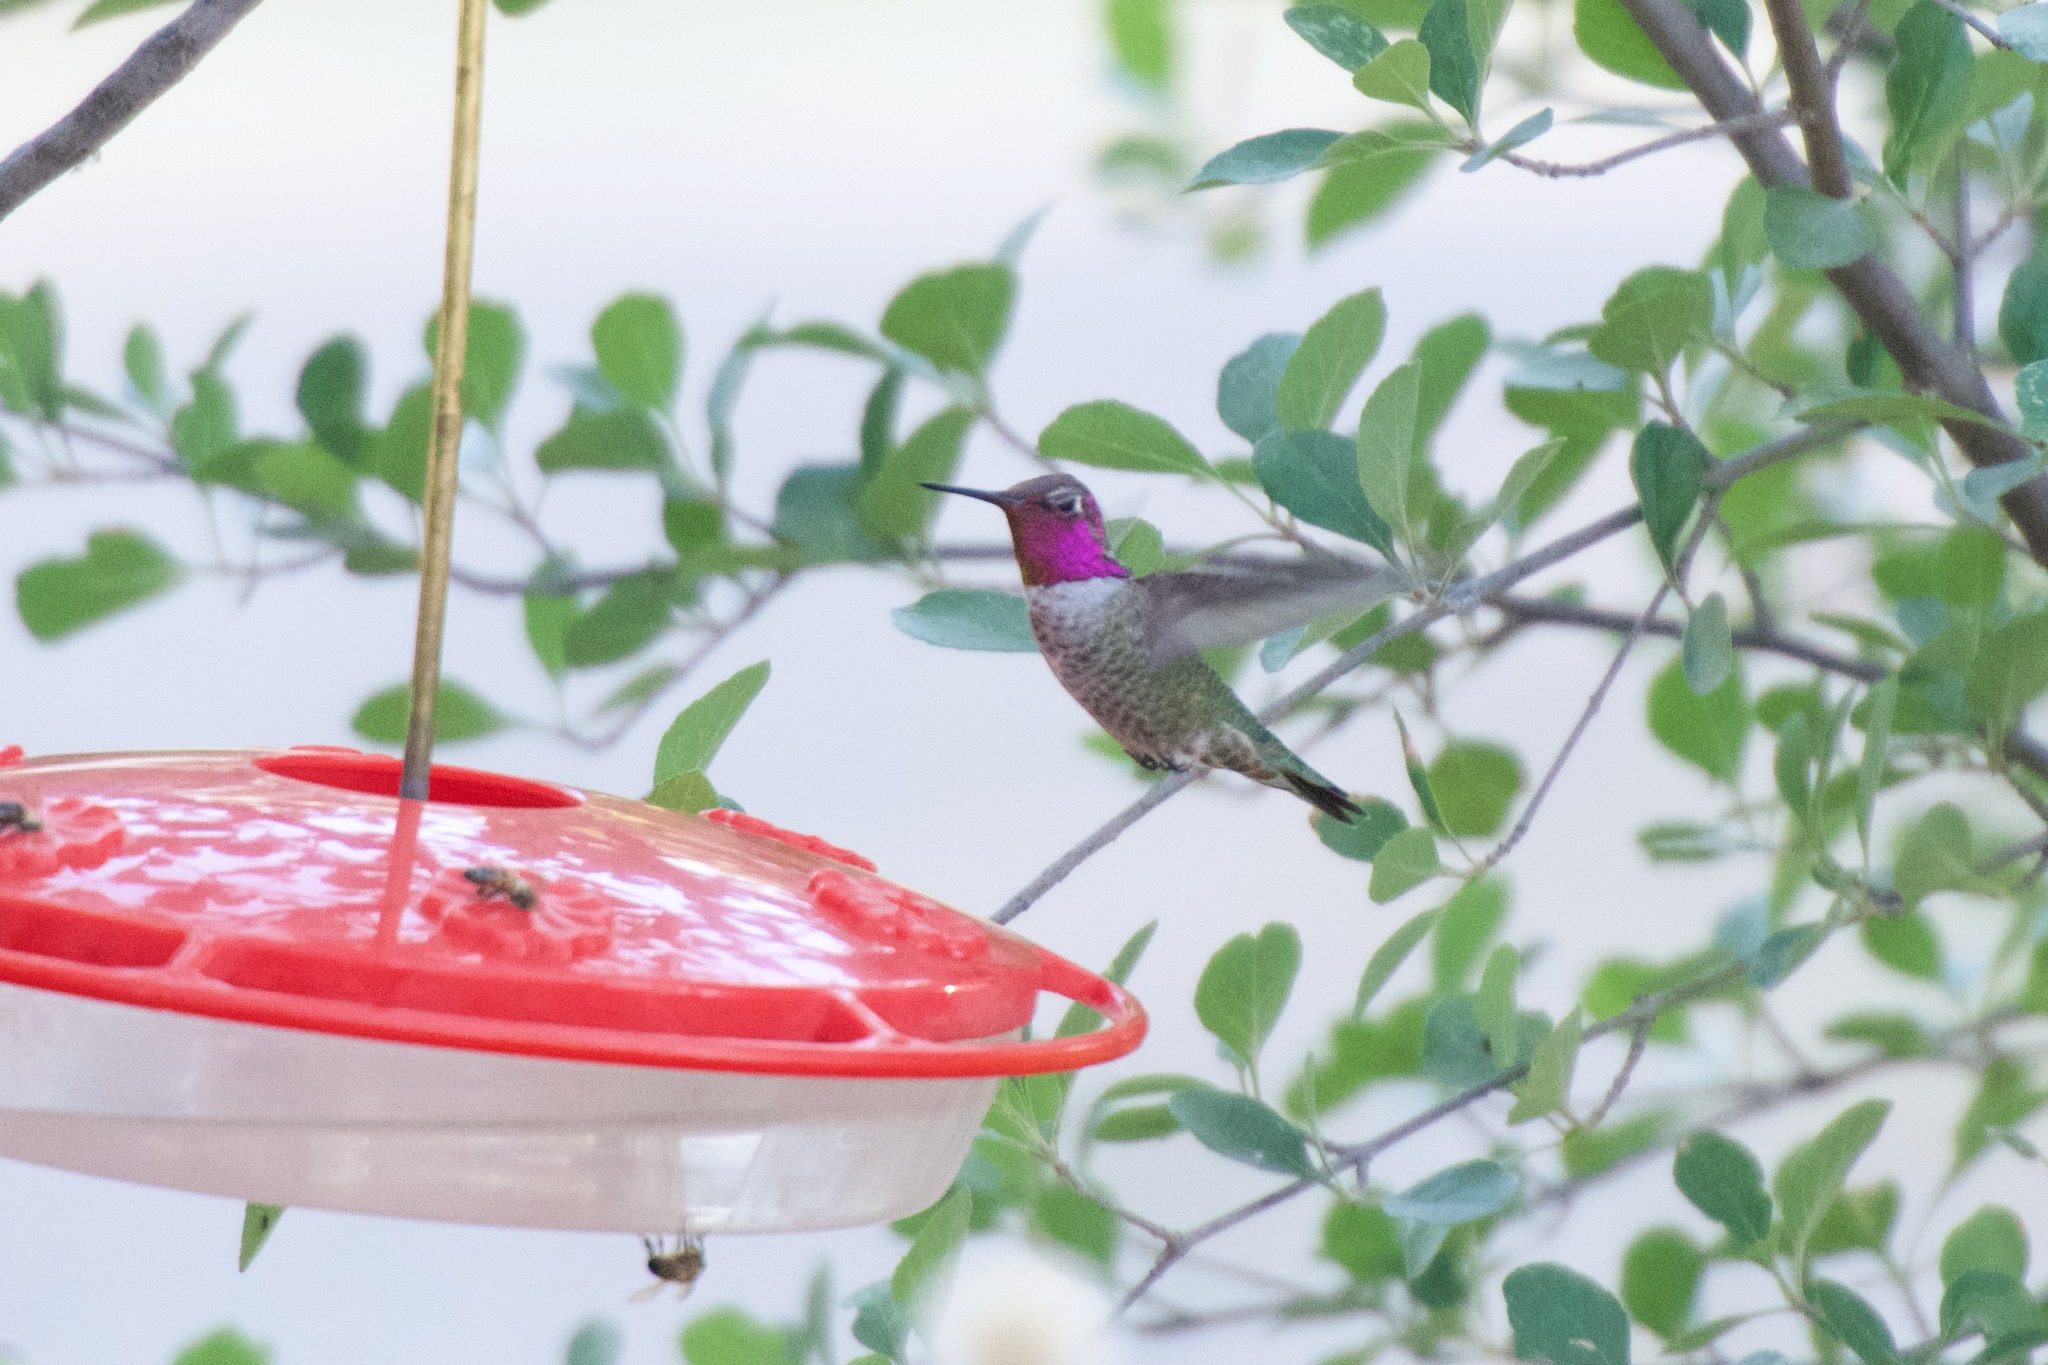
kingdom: Animalia
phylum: Chordata
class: Aves
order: Apodiformes
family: Trochilidae
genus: Calypte
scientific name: Calypte anna
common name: Anna's hummingbird
